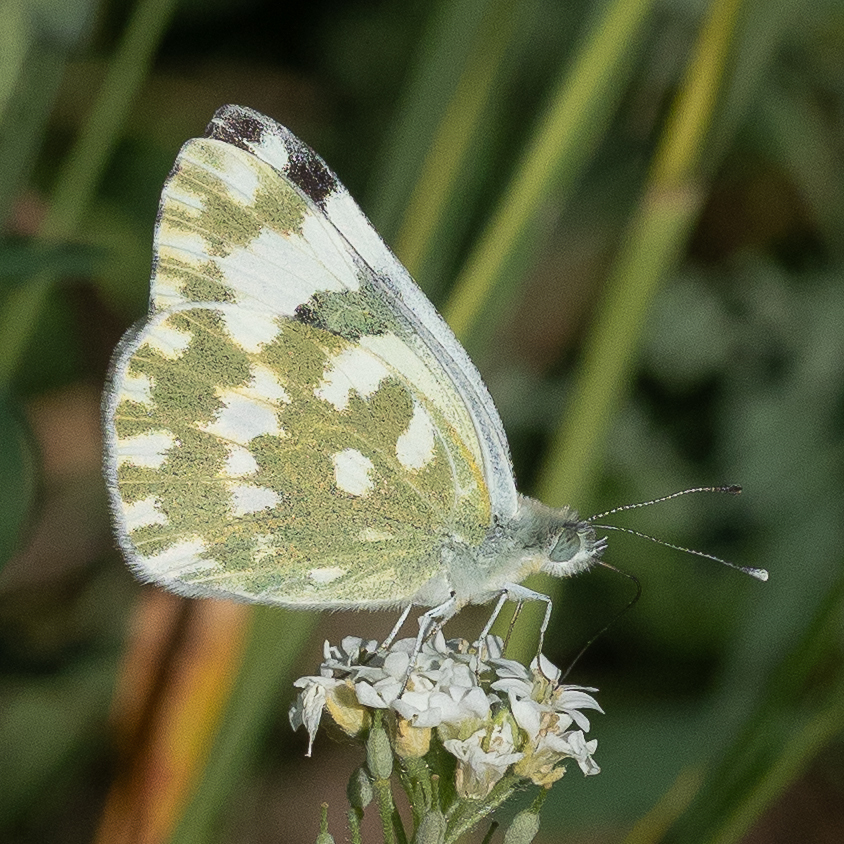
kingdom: Animalia
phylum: Arthropoda
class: Insecta
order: Lepidoptera
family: Pieridae
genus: Pontia
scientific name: Pontia edusa
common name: Eastern bath white
